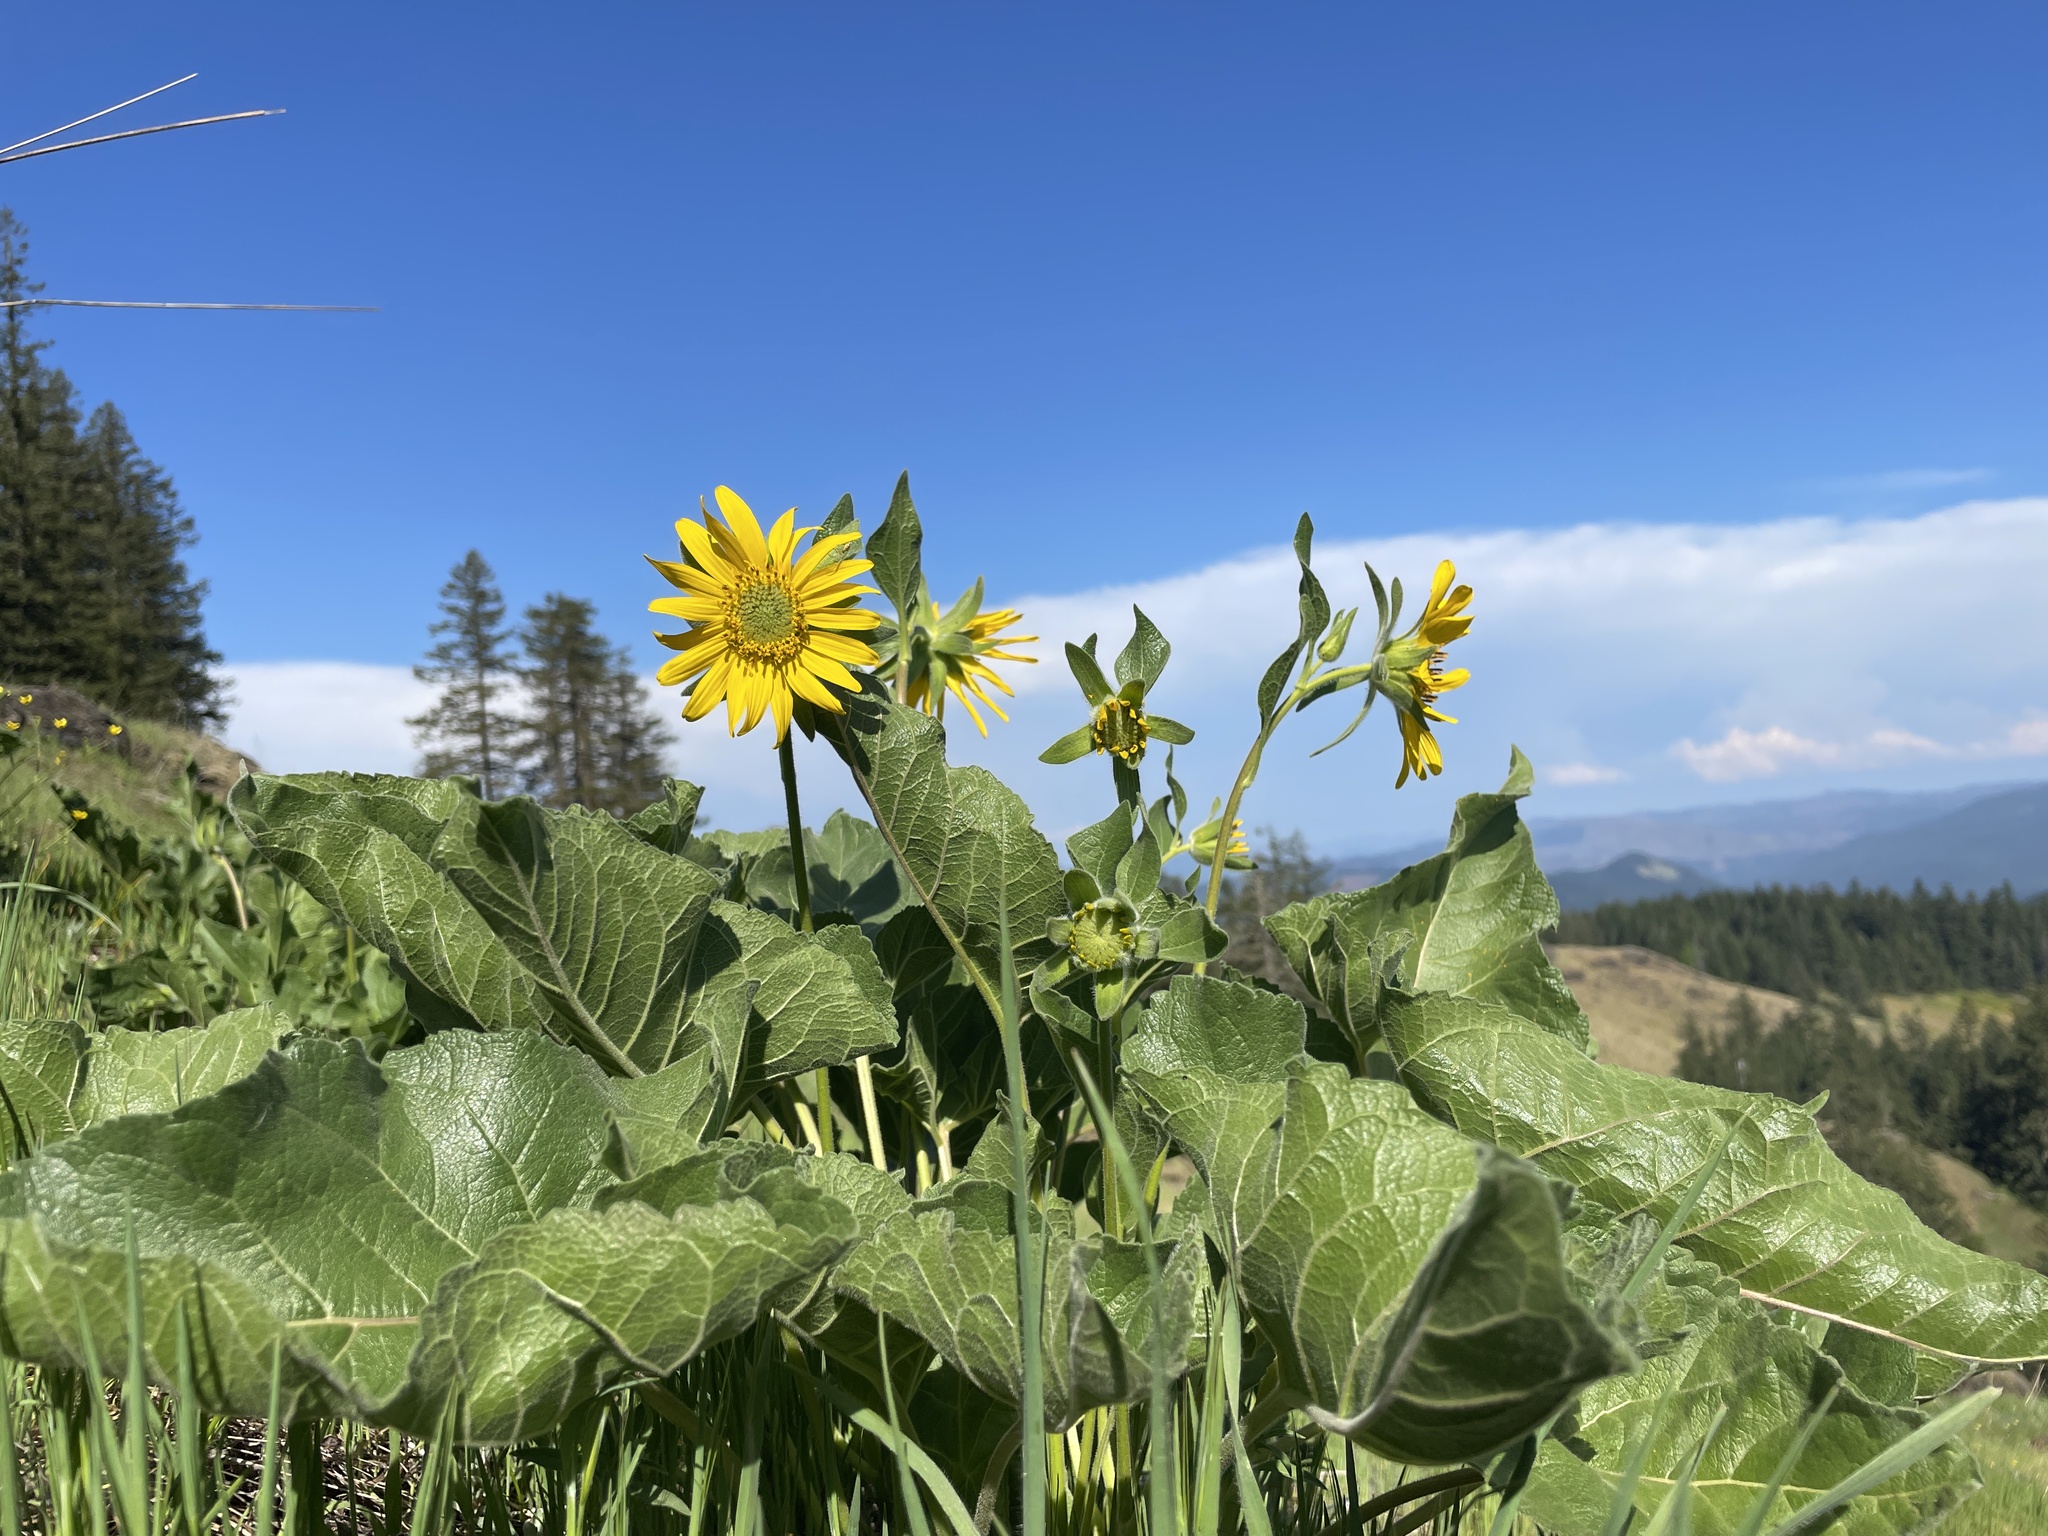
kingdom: Plantae
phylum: Tracheophyta
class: Magnoliopsida
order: Asterales
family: Asteraceae
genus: Balsamorhiza
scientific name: Balsamorhiza deltoidea
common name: Deltoid balsamroot
